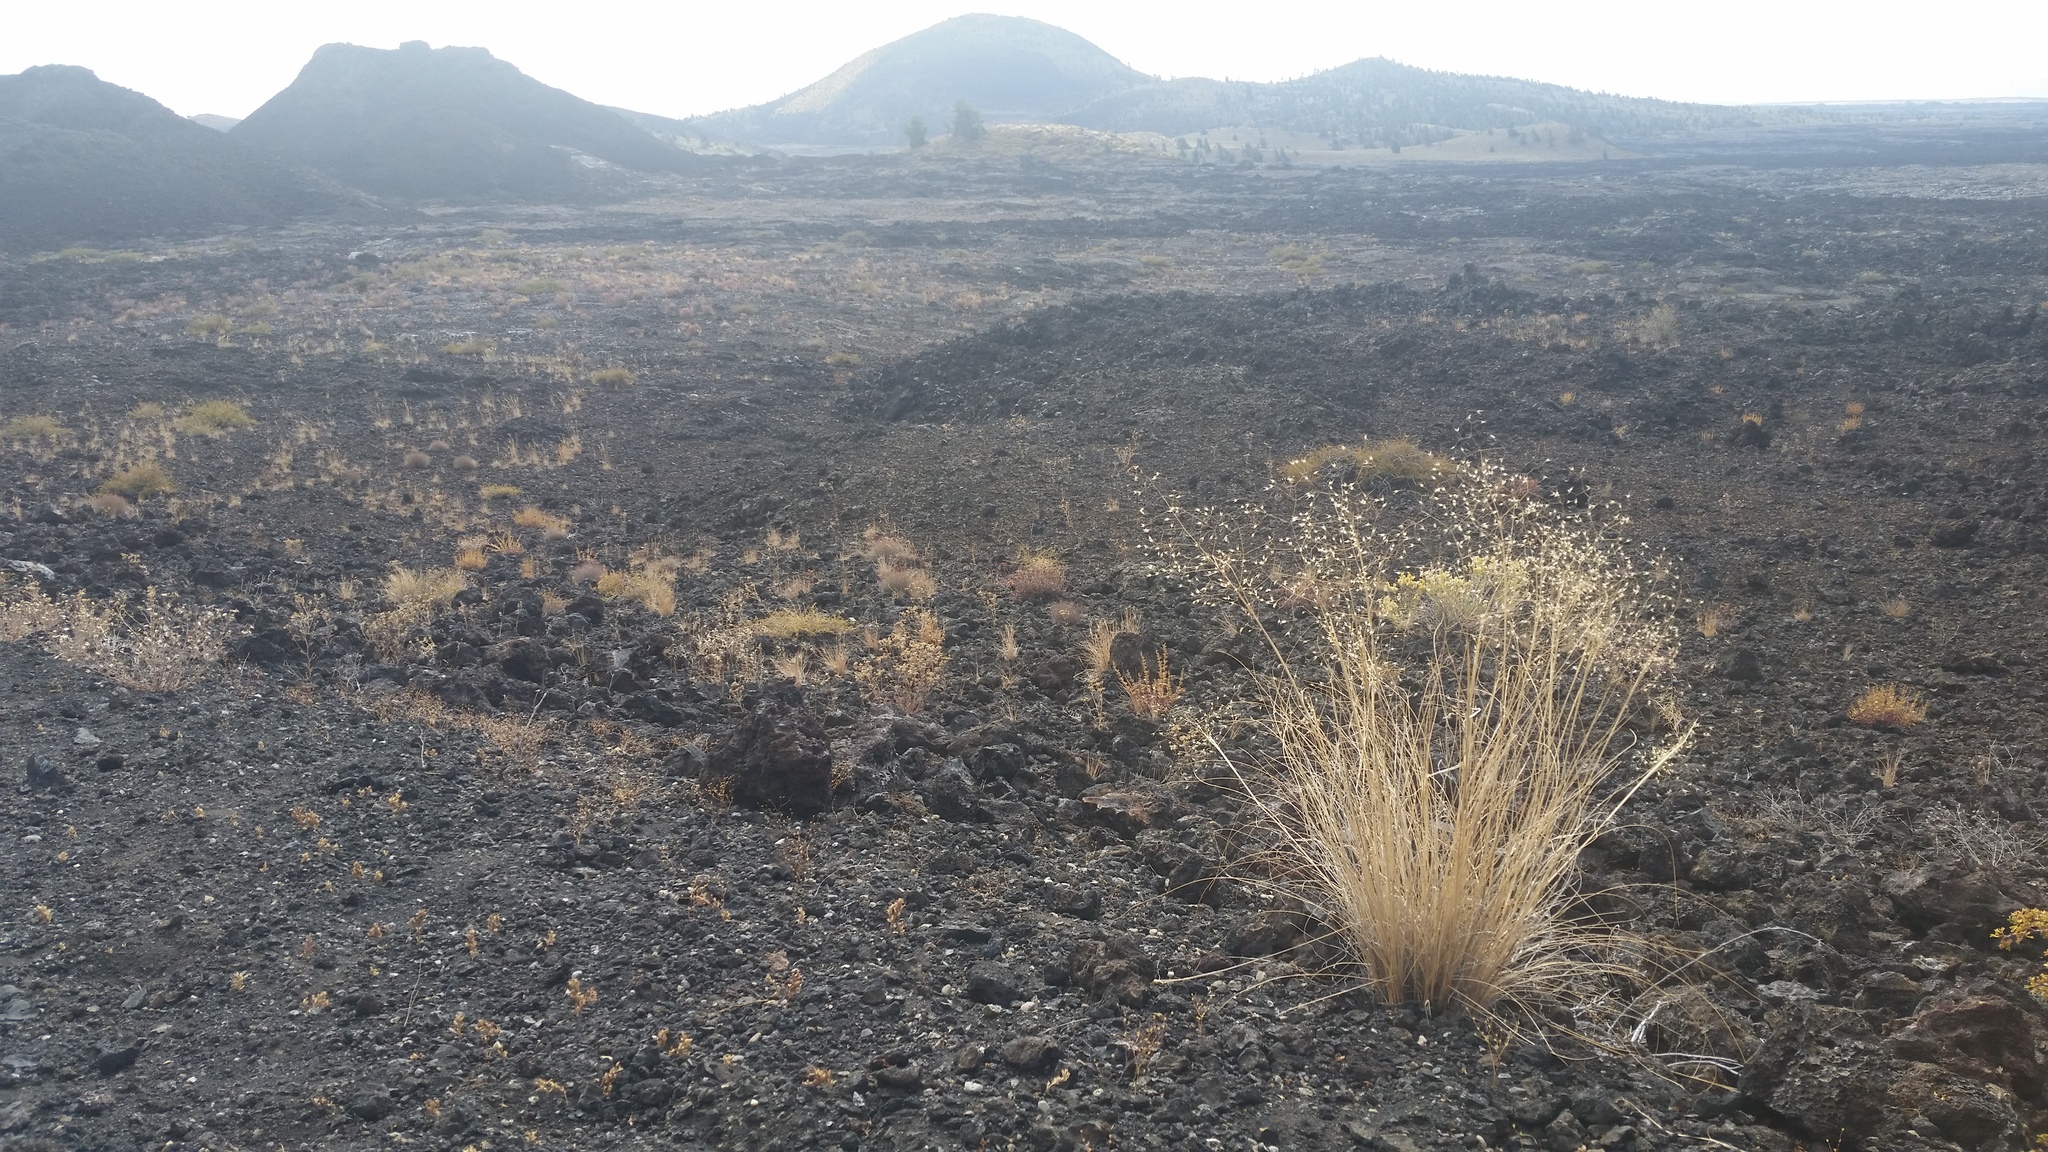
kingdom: Plantae
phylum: Tracheophyta
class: Liliopsida
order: Poales
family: Poaceae
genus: Eriocoma
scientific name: Eriocoma hymenoides
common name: Indian mountain ricegrass
